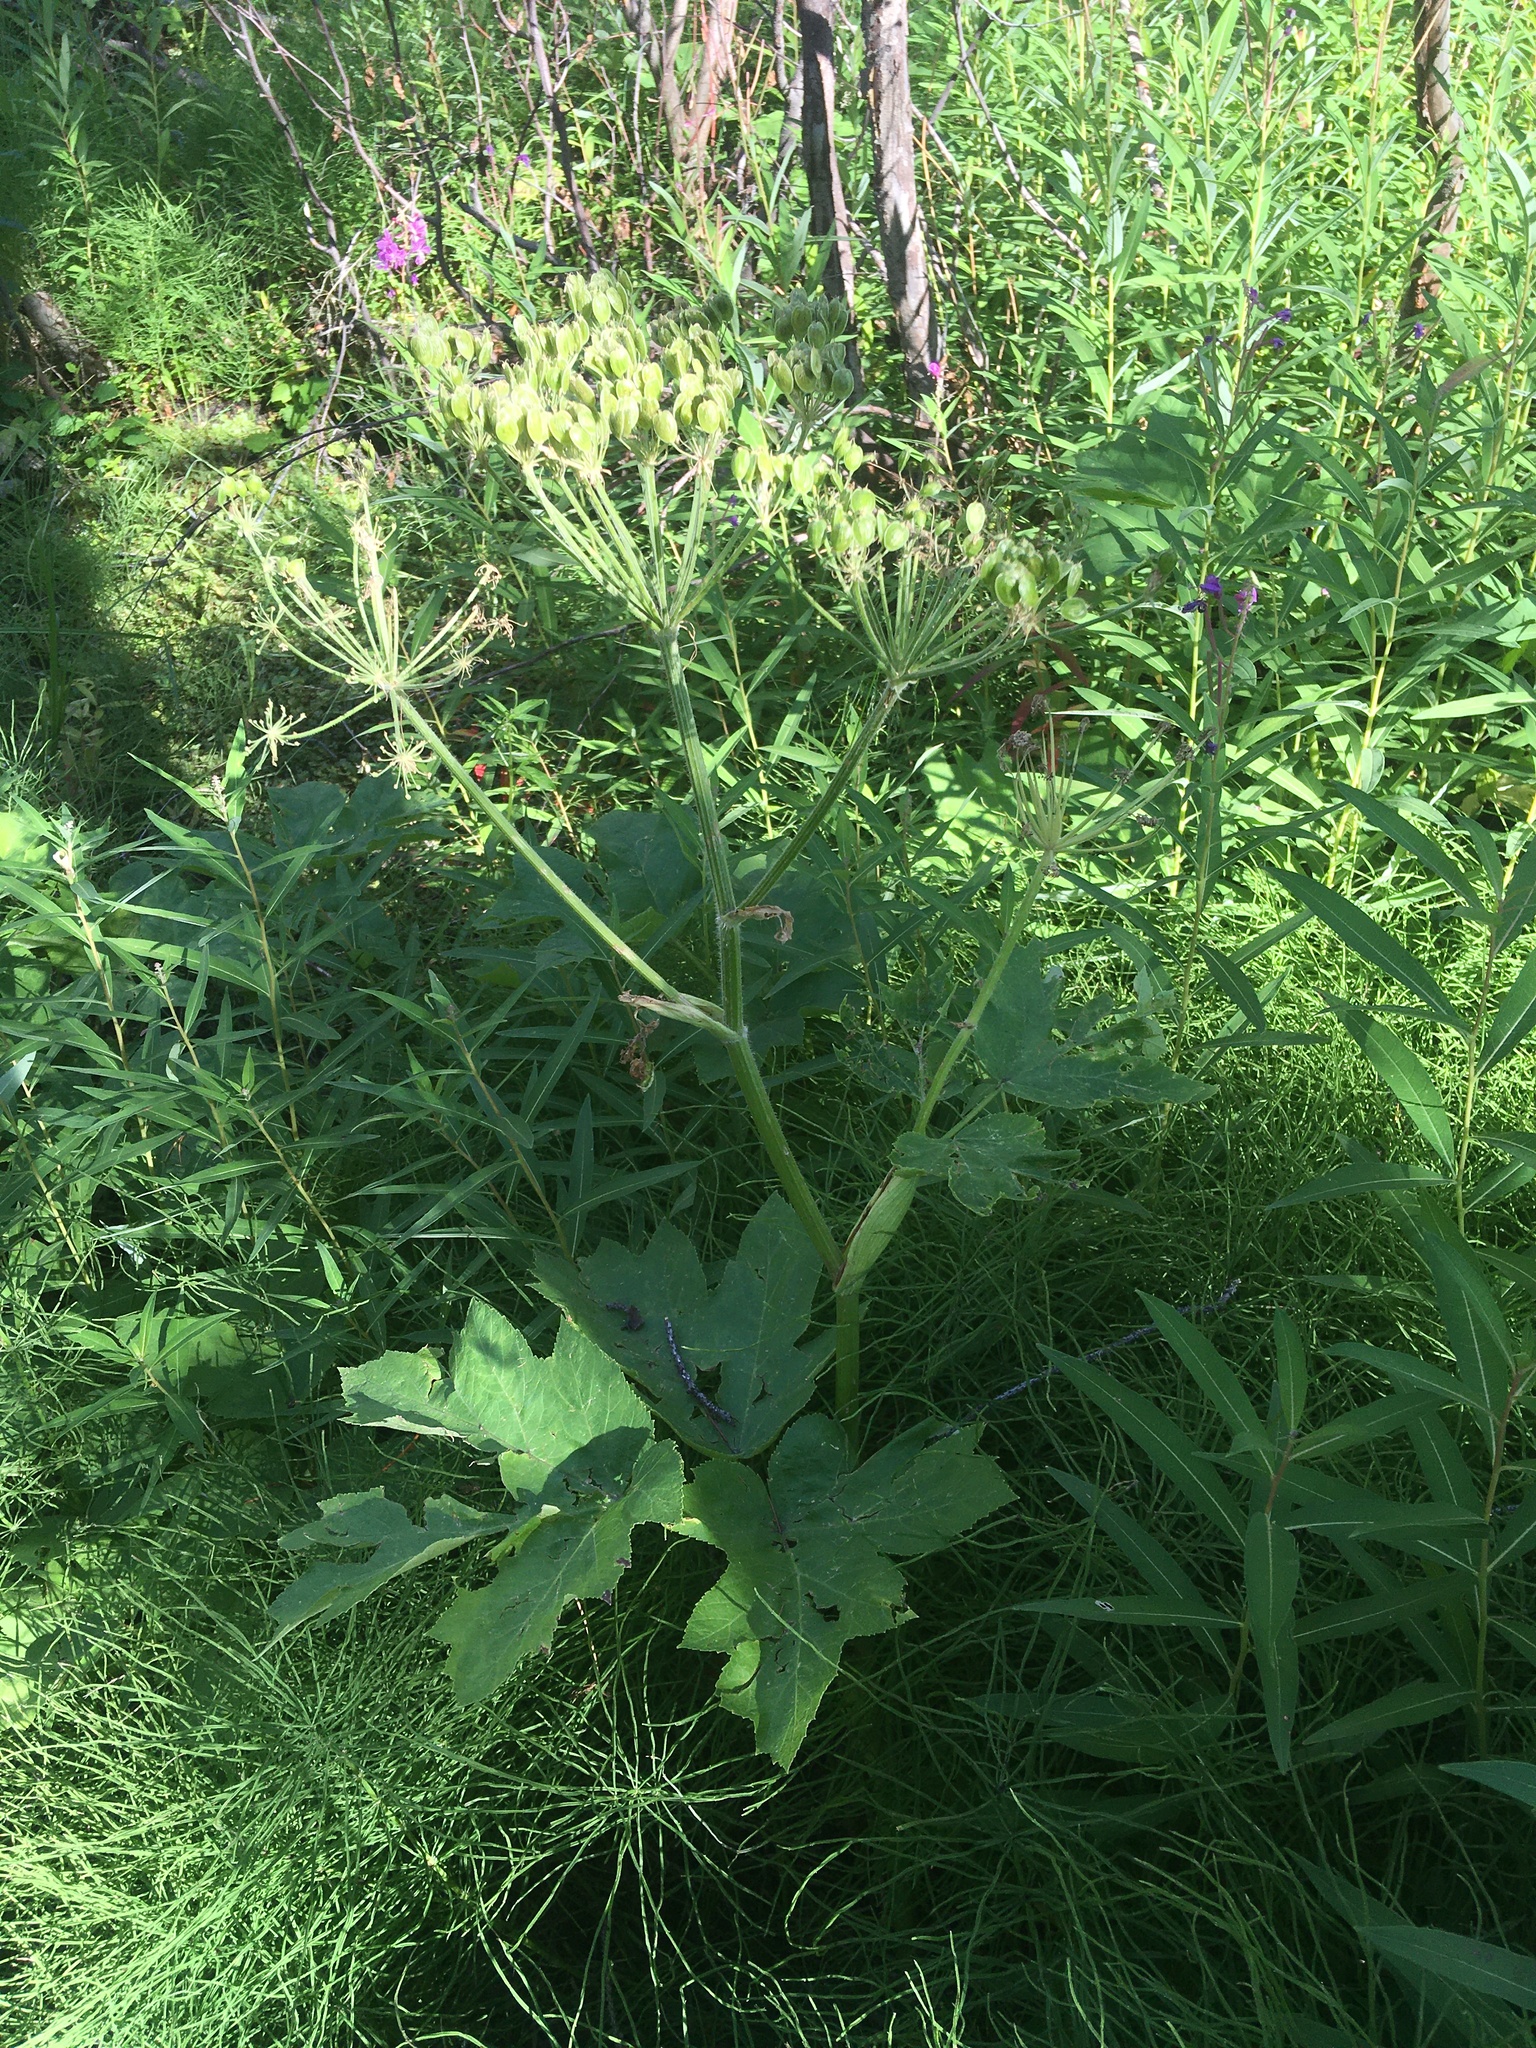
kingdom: Plantae
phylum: Tracheophyta
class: Magnoliopsida
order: Apiales
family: Apiaceae
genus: Heracleum
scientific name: Heracleum maximum
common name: American cow parsnip
